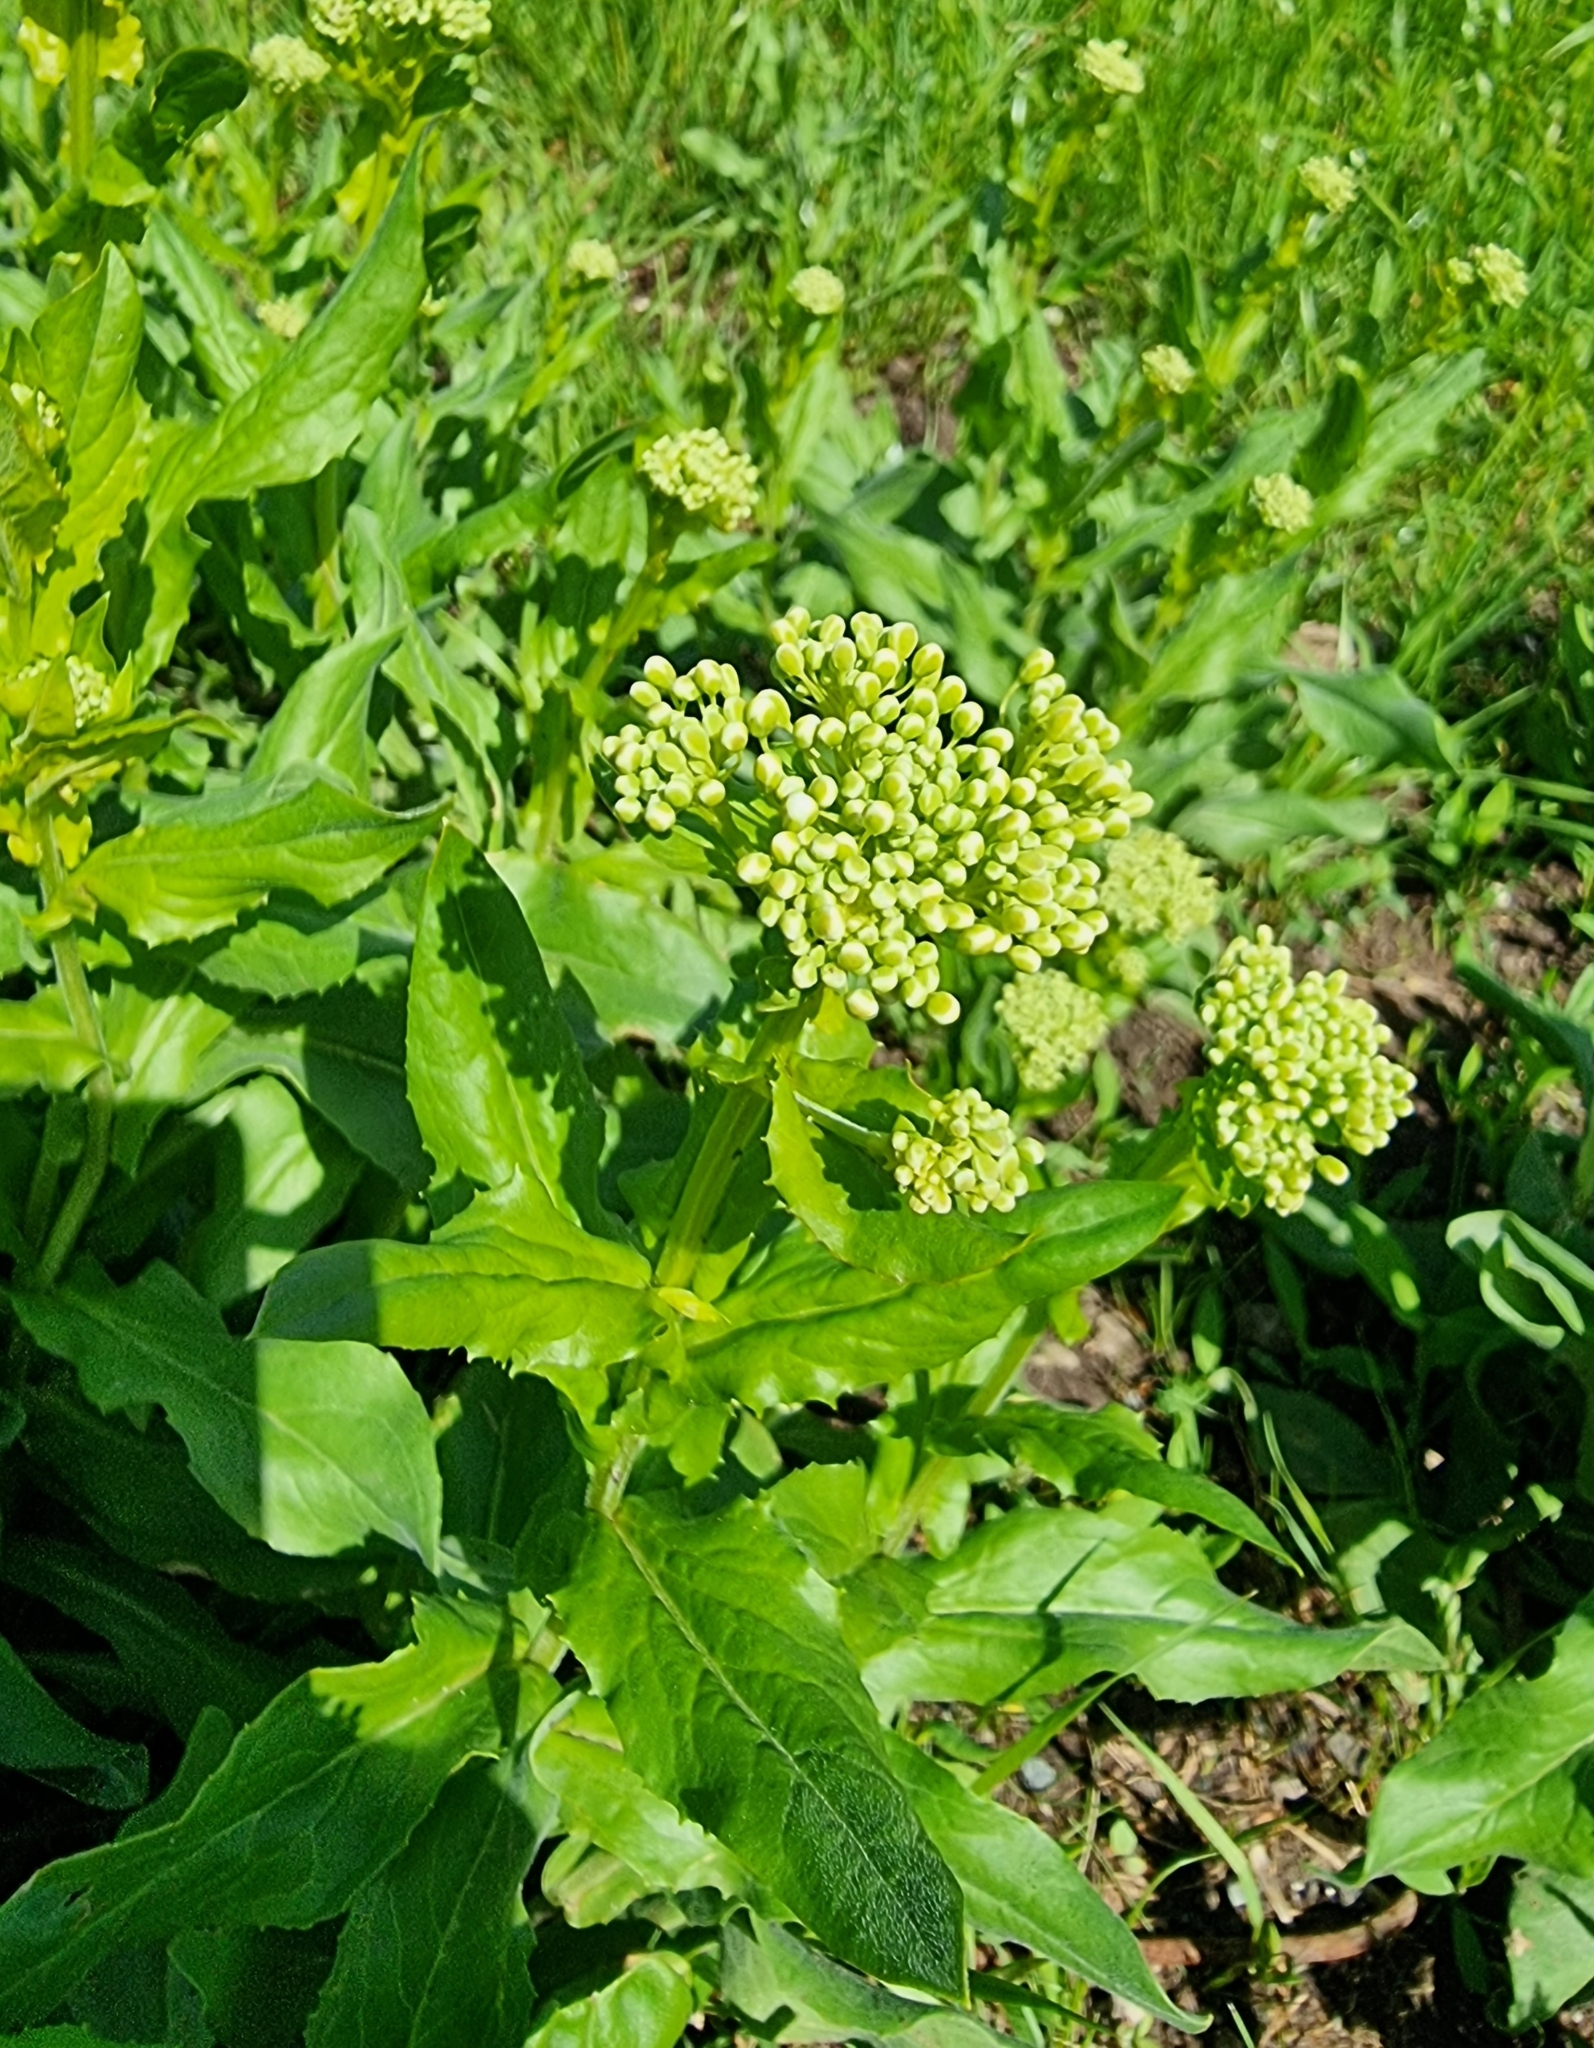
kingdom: Plantae
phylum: Tracheophyta
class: Magnoliopsida
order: Brassicales
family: Brassicaceae
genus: Lepidium
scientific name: Lepidium draba
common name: Hoary cress
